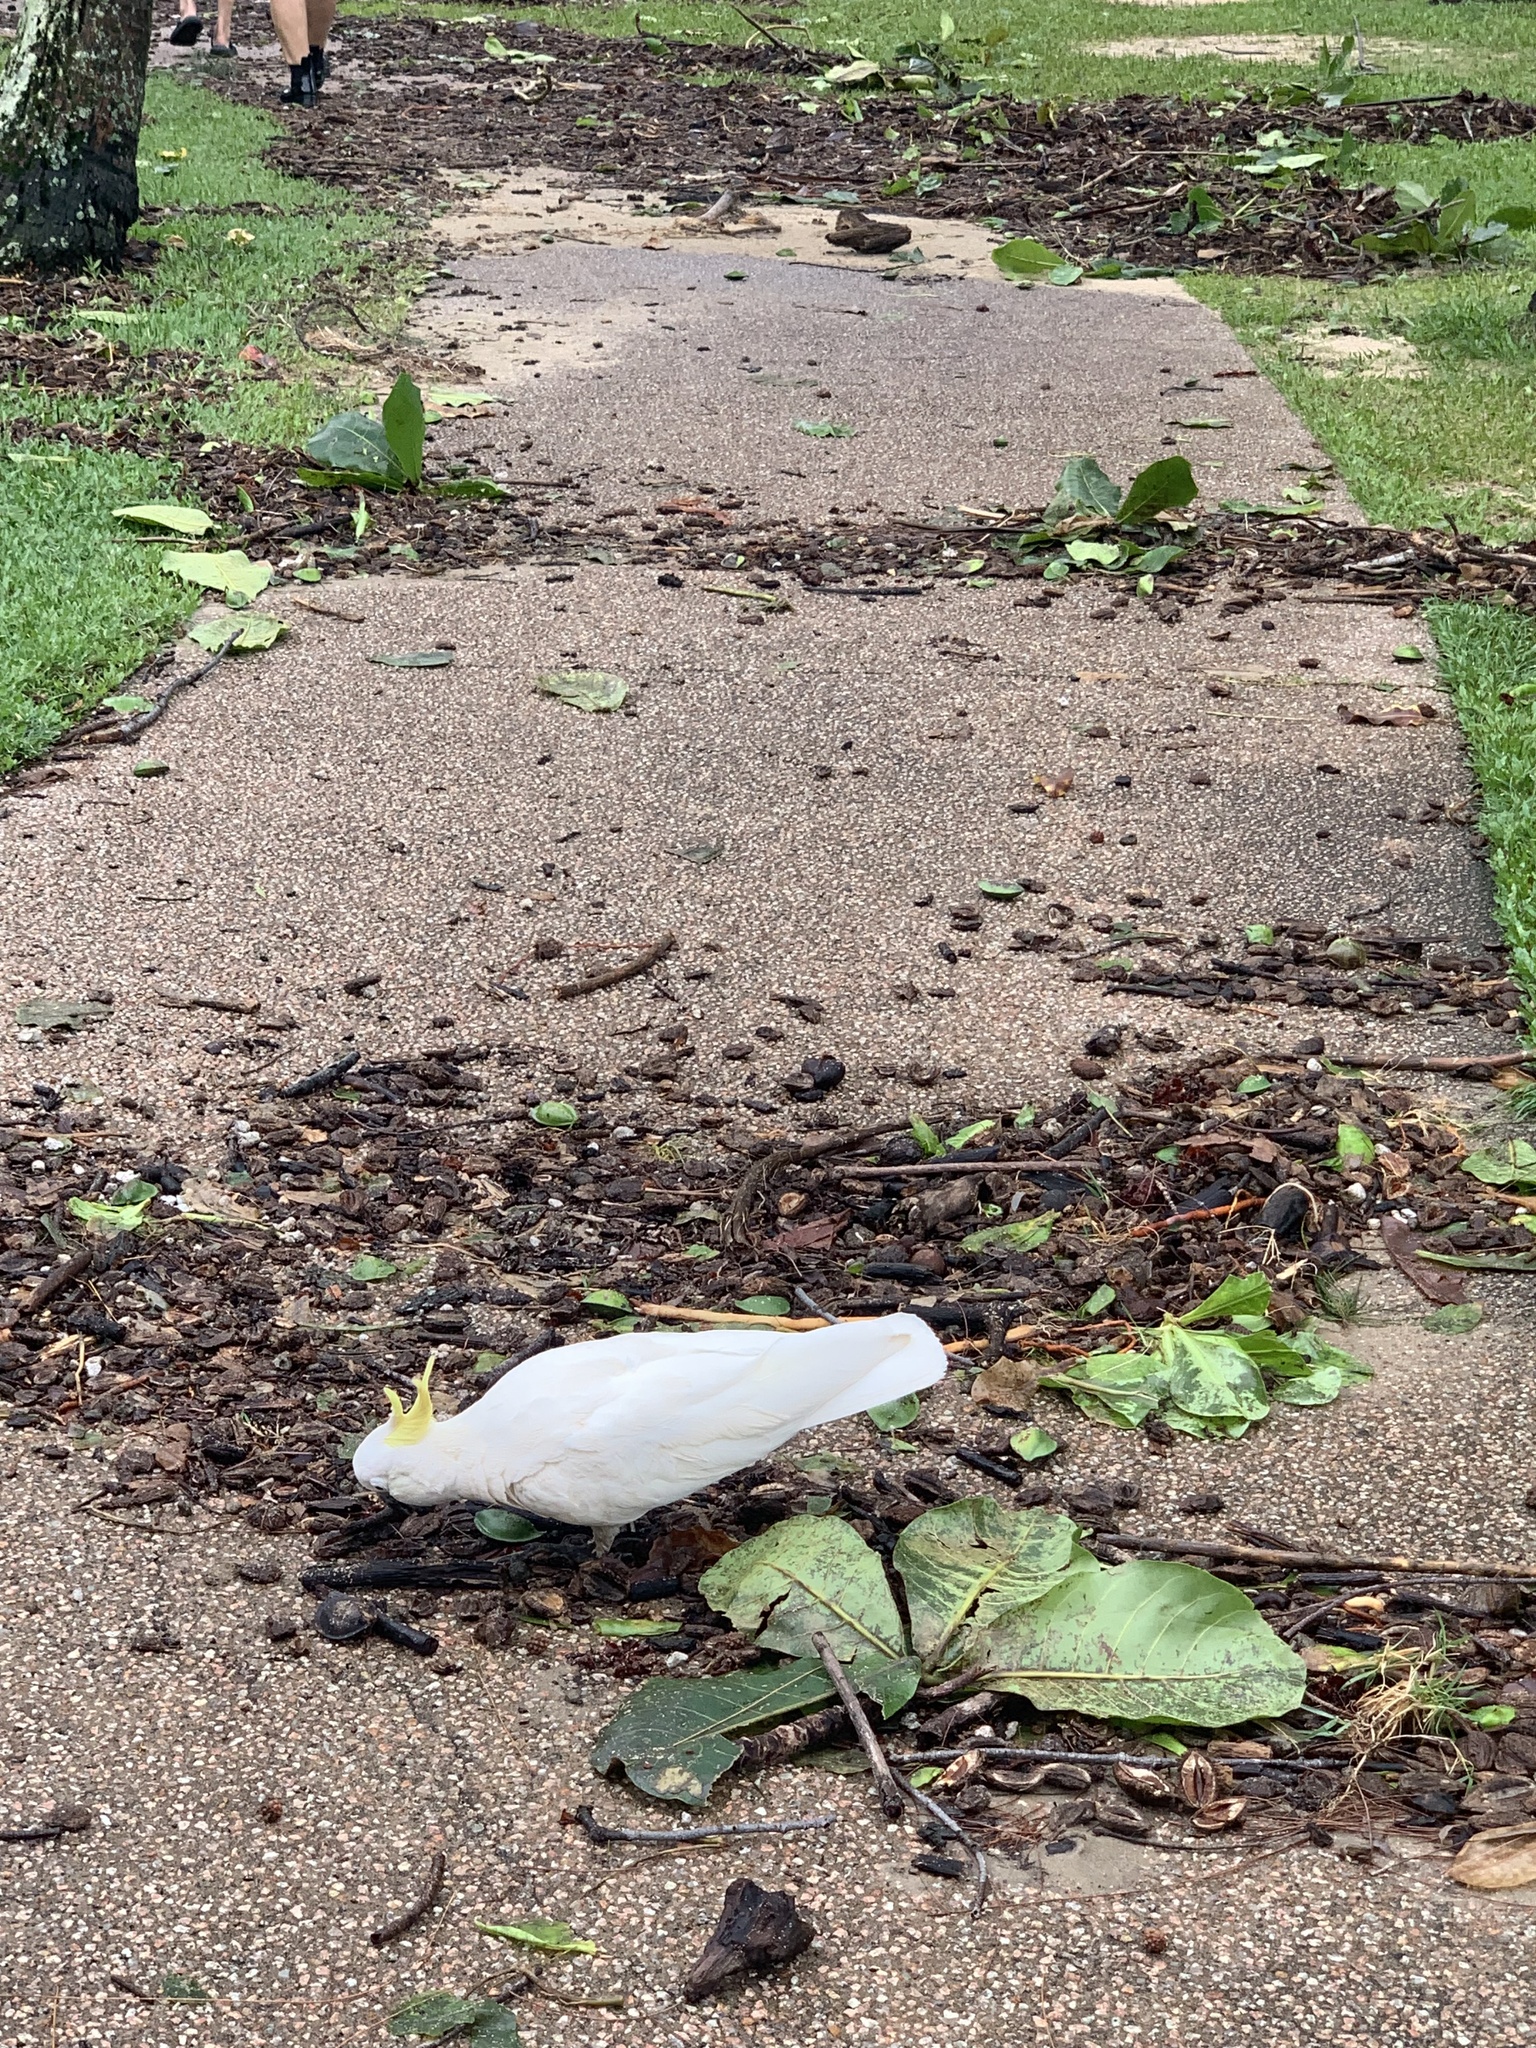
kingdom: Animalia
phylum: Chordata
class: Aves
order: Psittaciformes
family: Psittacidae
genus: Cacatua
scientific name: Cacatua galerita
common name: Sulphur-crested cockatoo
